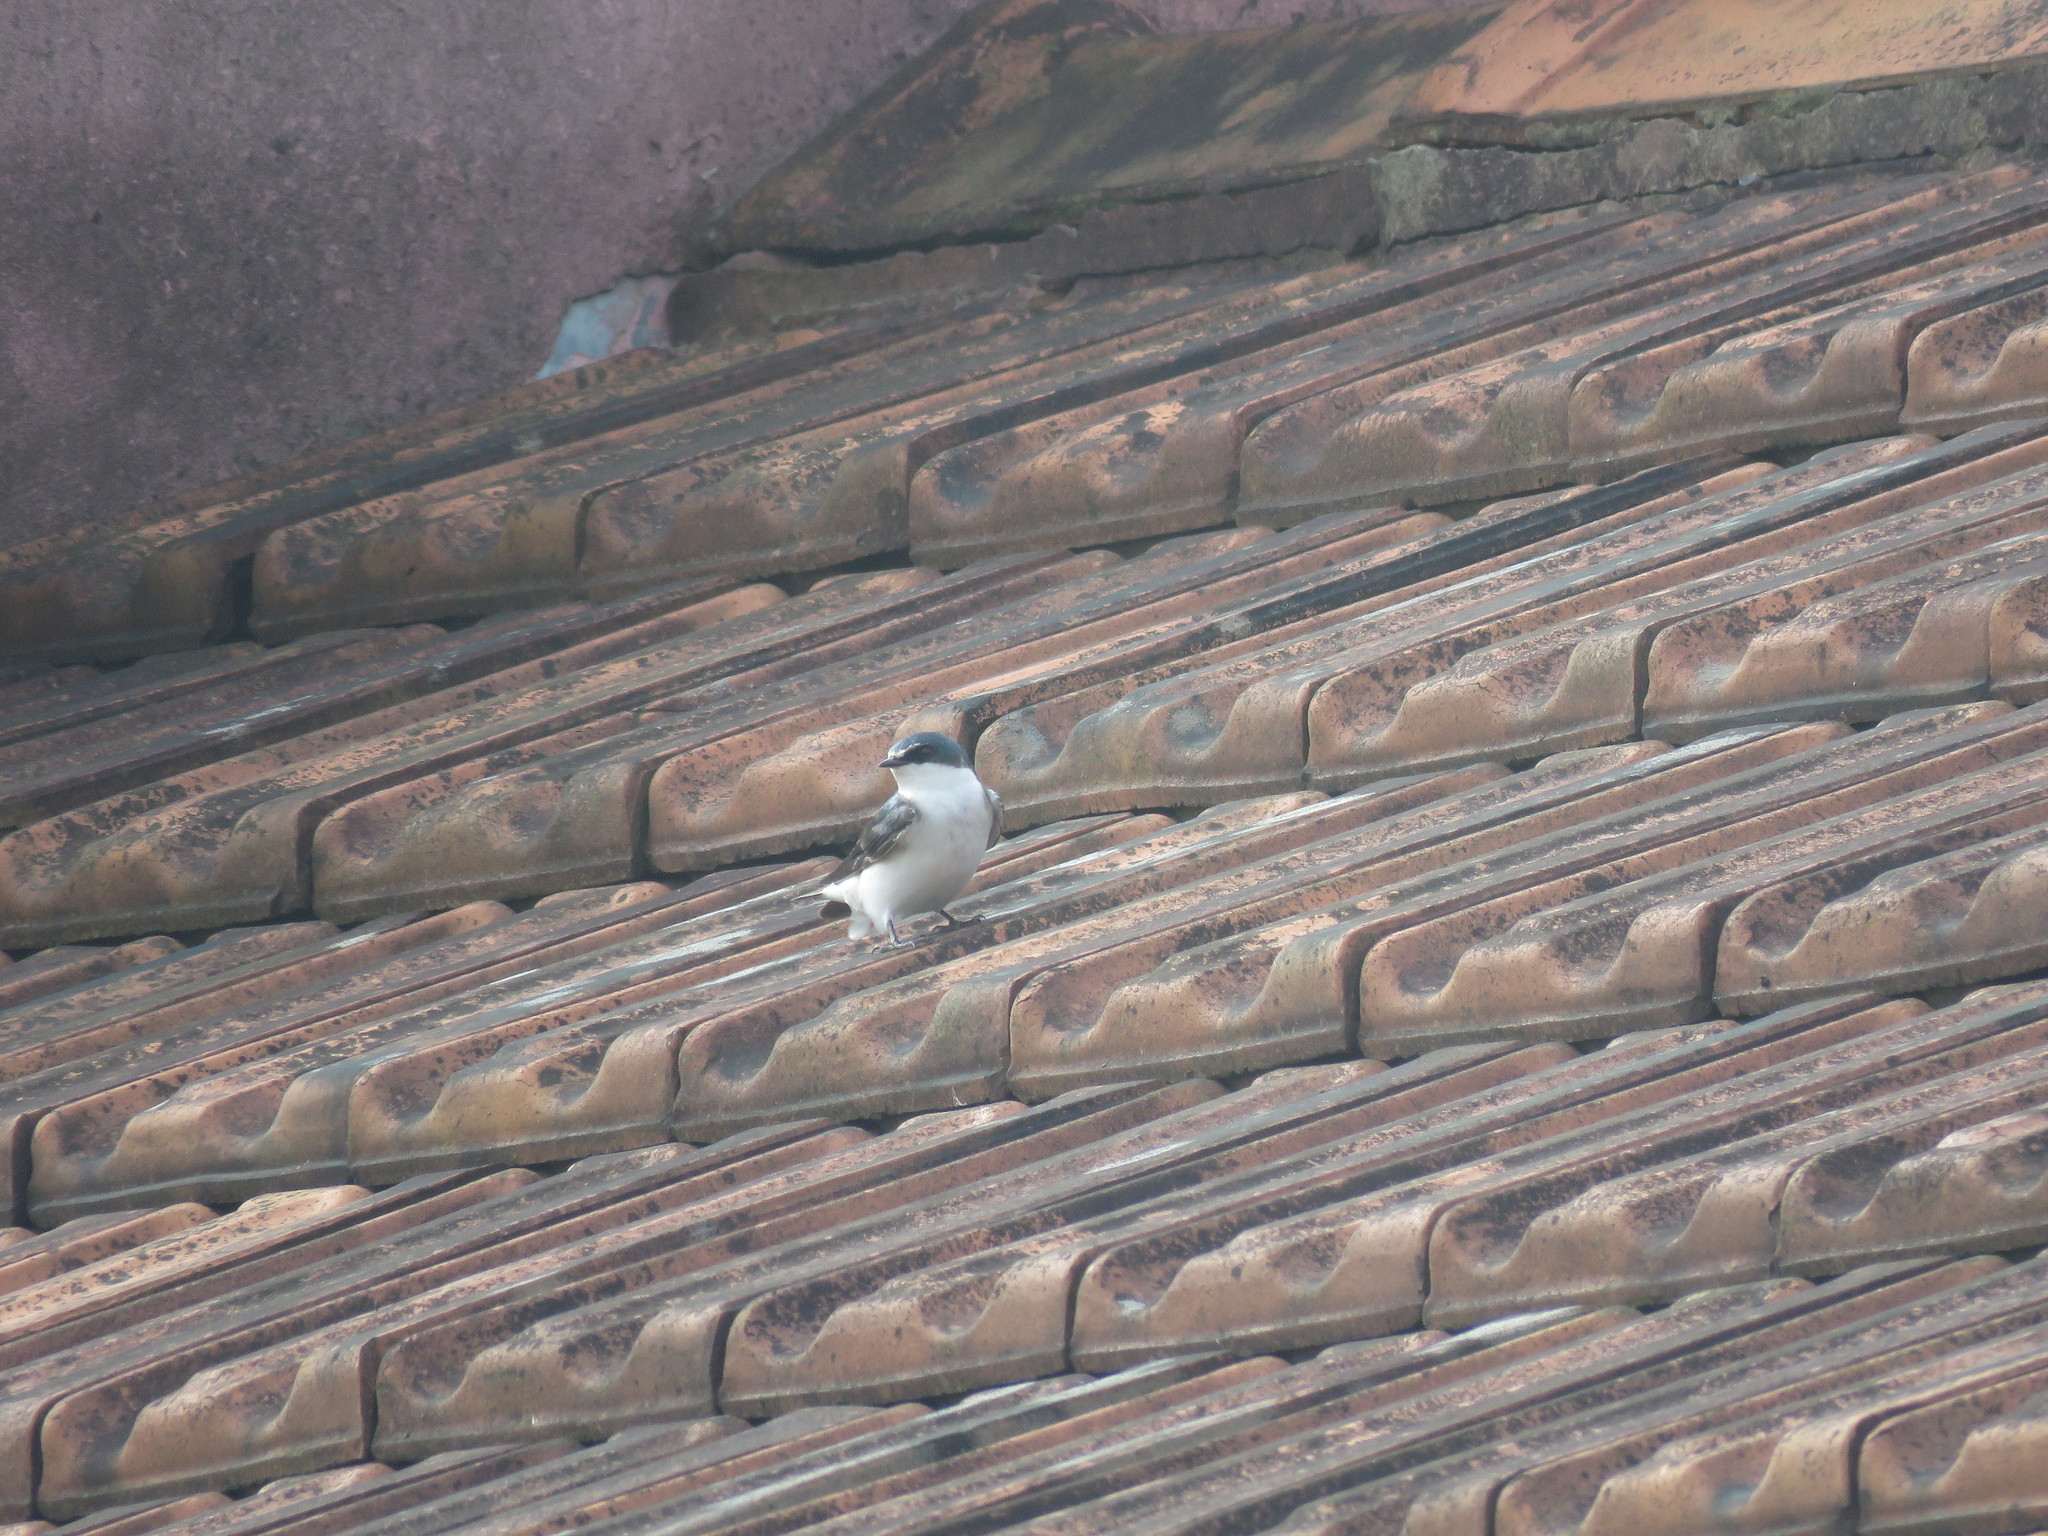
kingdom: Animalia
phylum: Chordata
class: Aves
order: Passeriformes
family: Hirundinidae
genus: Tachycineta
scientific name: Tachycineta leucorrhoa
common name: White-rumped swallow
